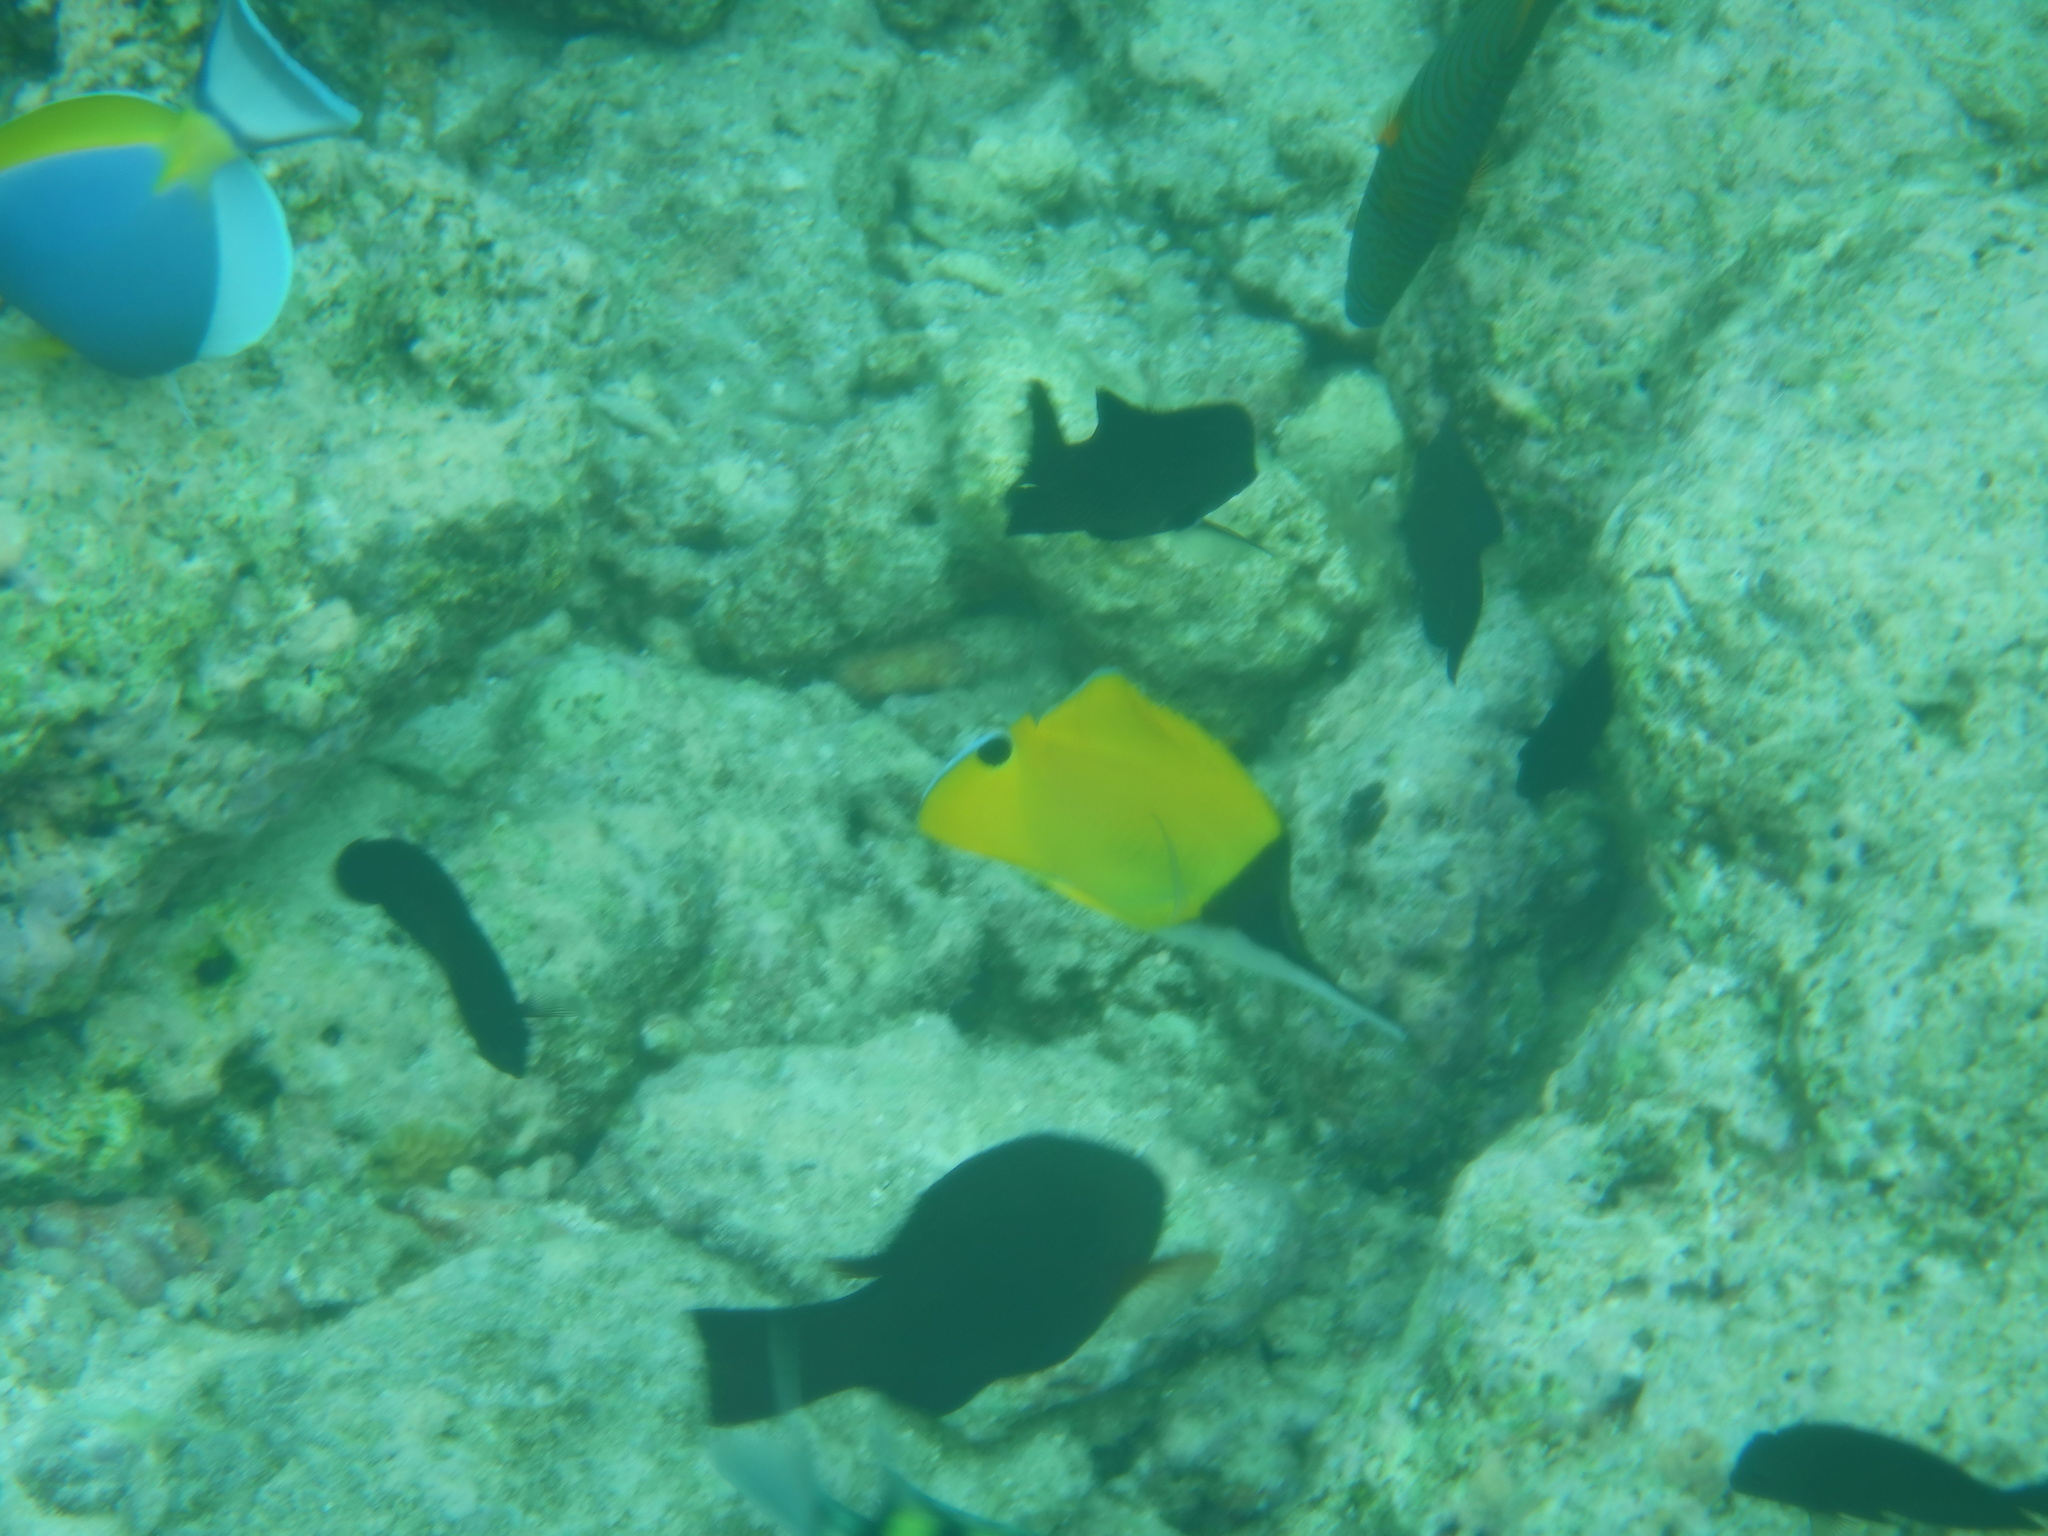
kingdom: Animalia
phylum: Chordata
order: Perciformes
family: Chaetodontidae
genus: Forcipiger
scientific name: Forcipiger longirostris
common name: Longnose butterflyfish
